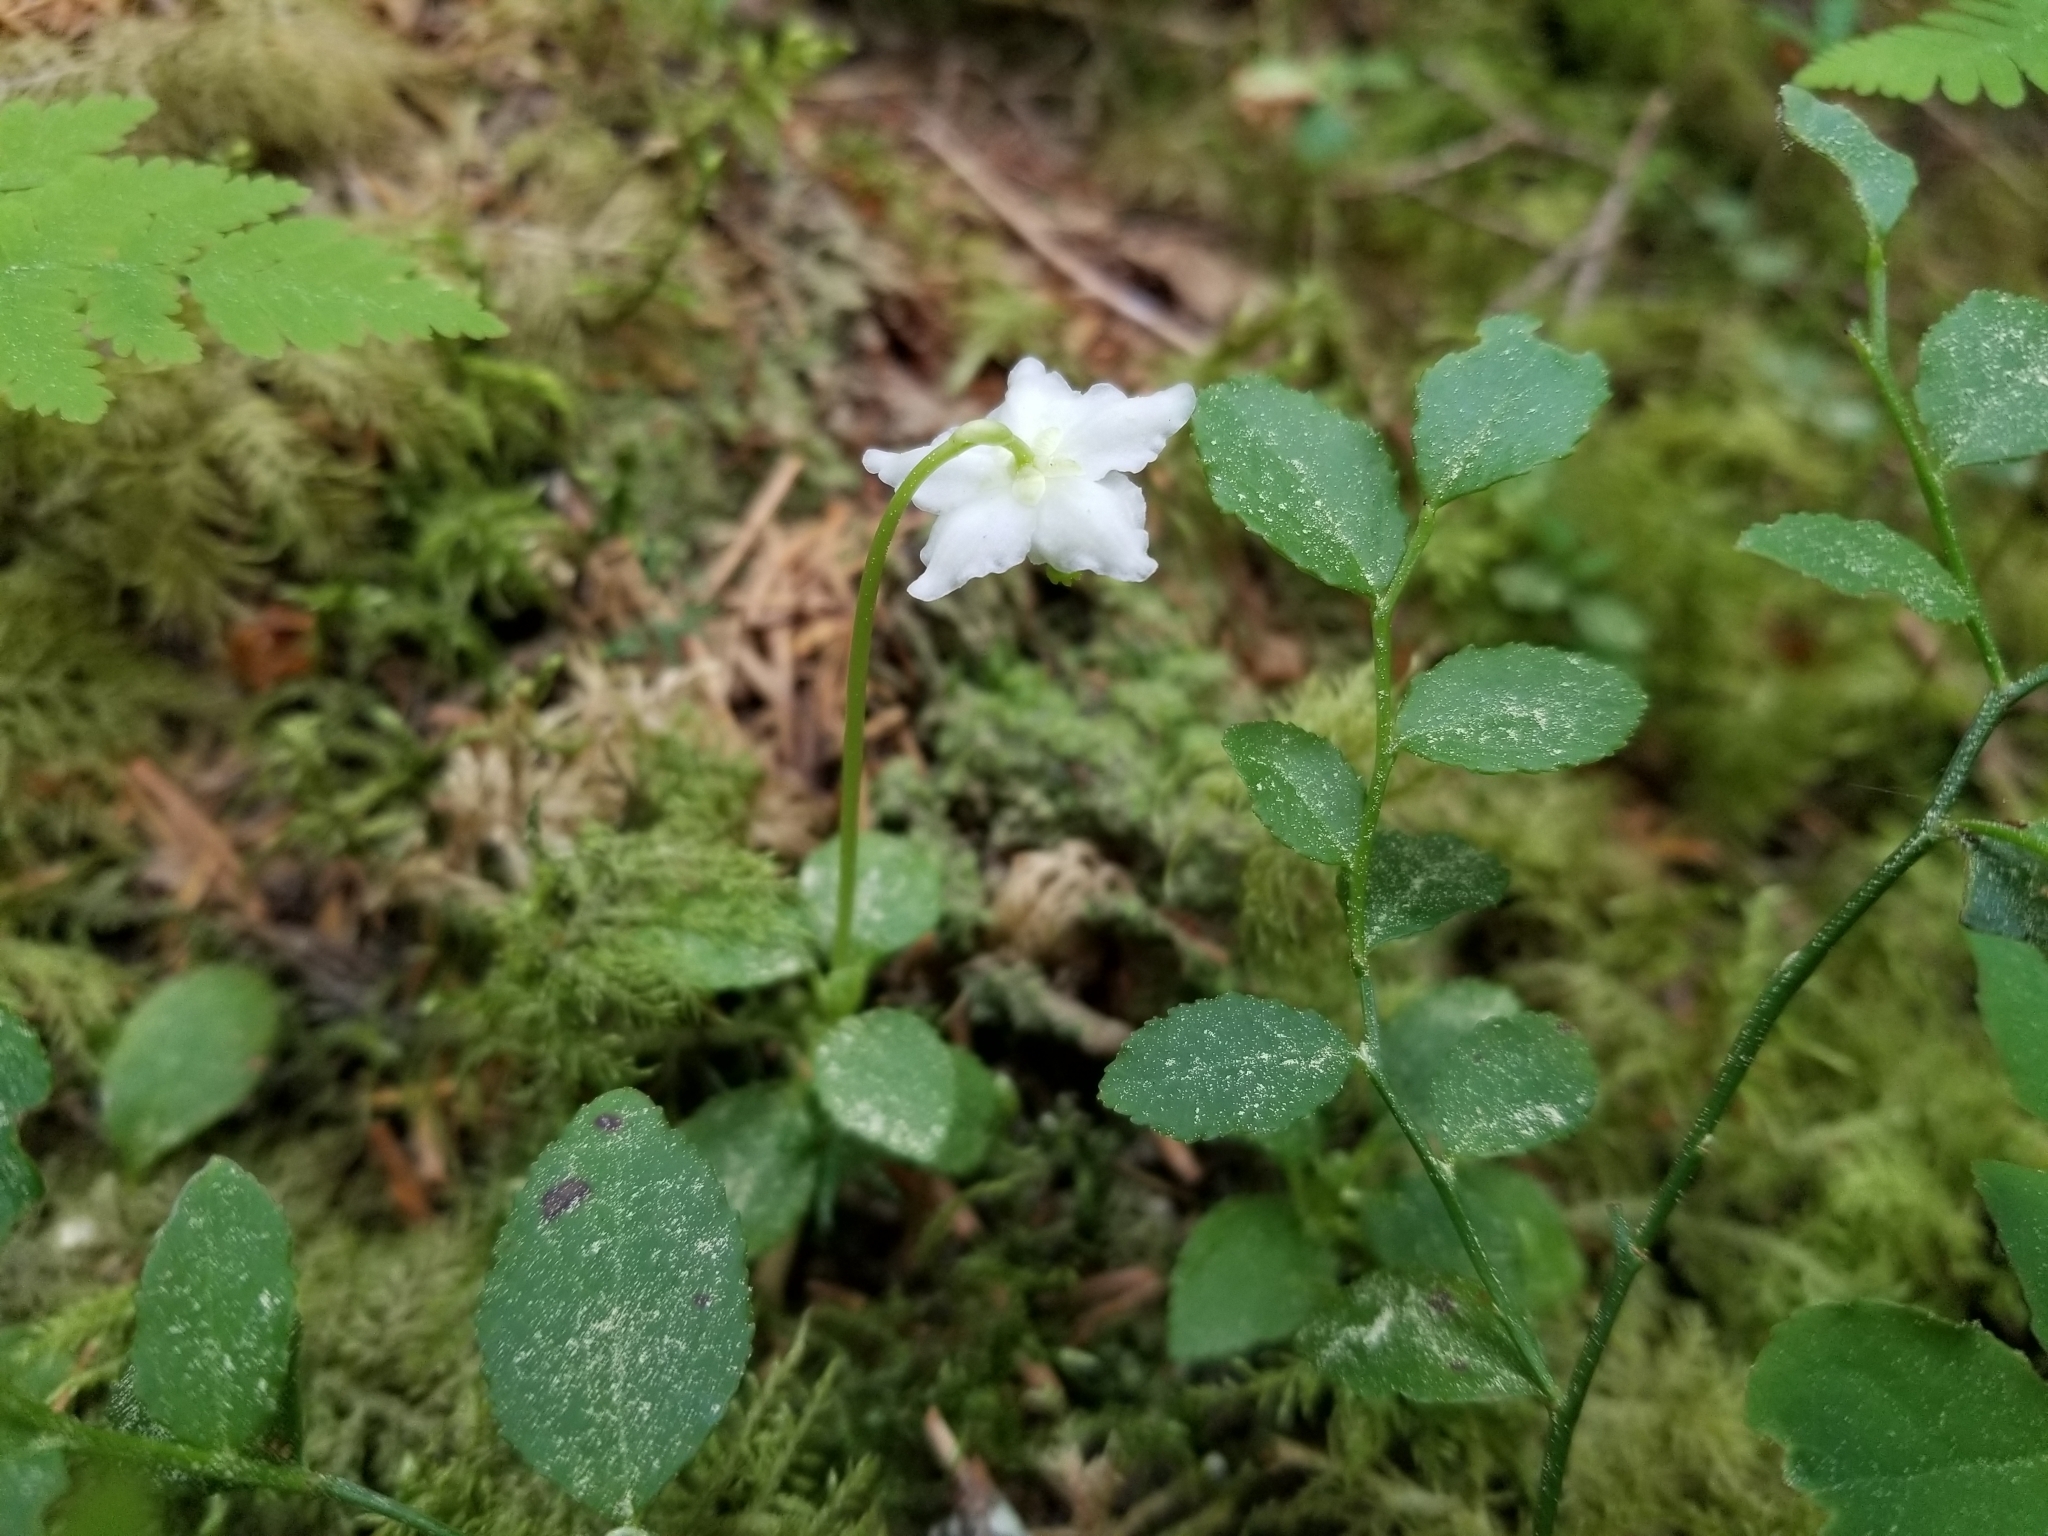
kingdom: Plantae
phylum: Tracheophyta
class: Magnoliopsida
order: Ericales
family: Ericaceae
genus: Moneses
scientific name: Moneses uniflora
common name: One-flowered wintergreen
